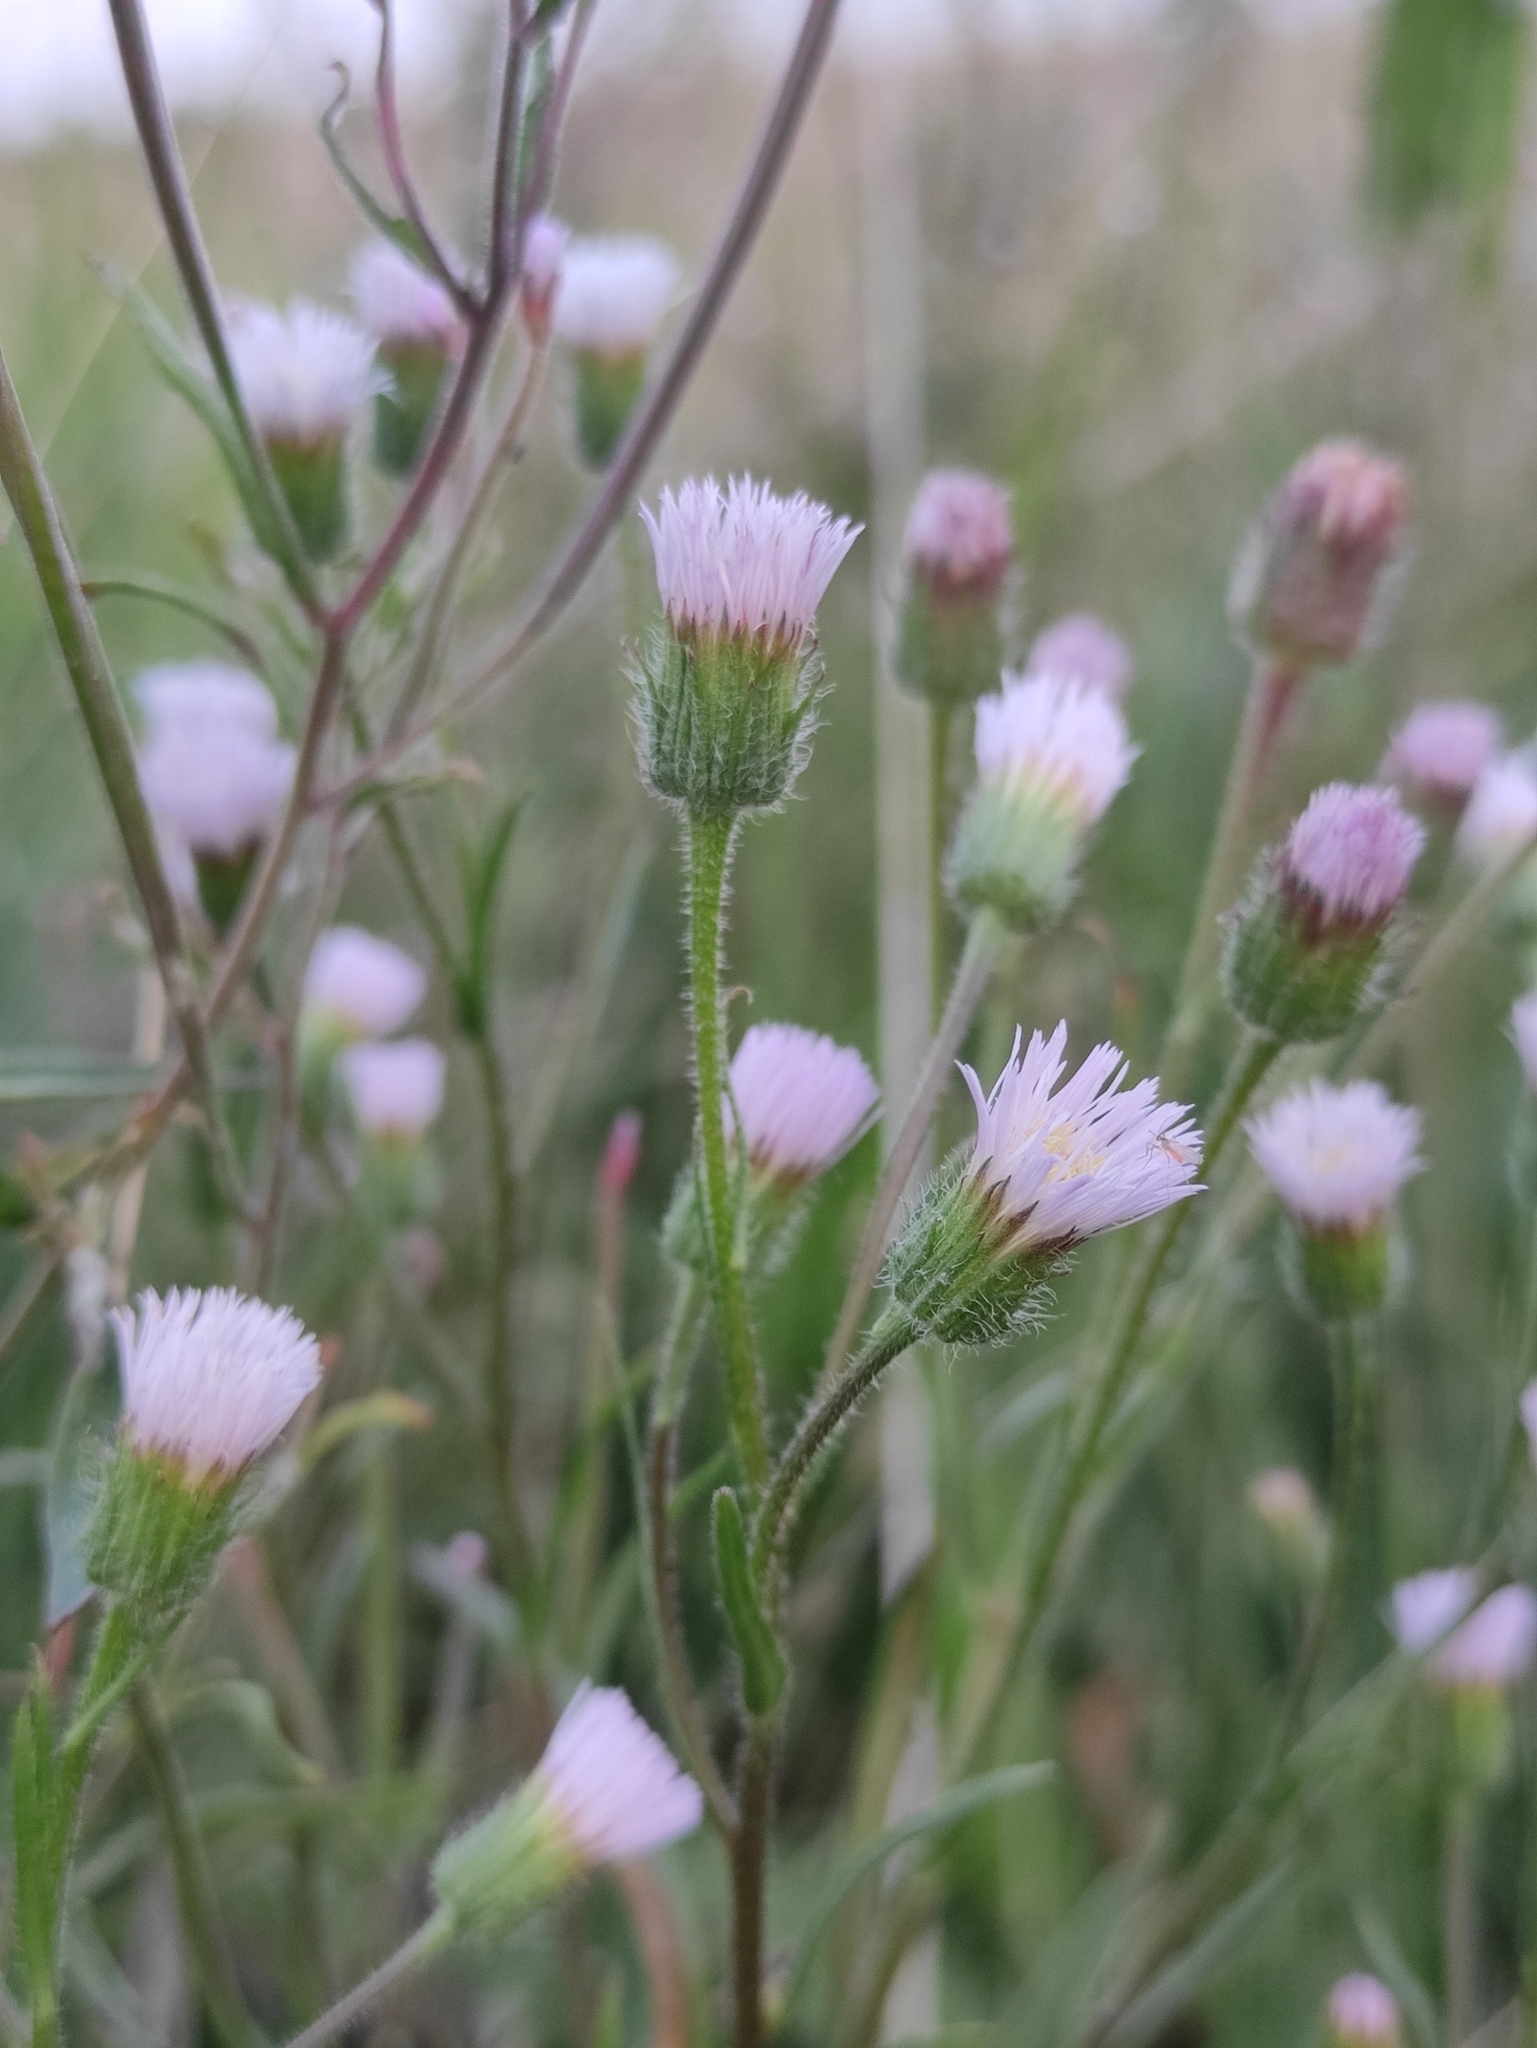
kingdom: Plantae
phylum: Tracheophyta
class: Magnoliopsida
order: Asterales
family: Asteraceae
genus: Erigeron
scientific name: Erigeron acris
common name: Blue fleabane
